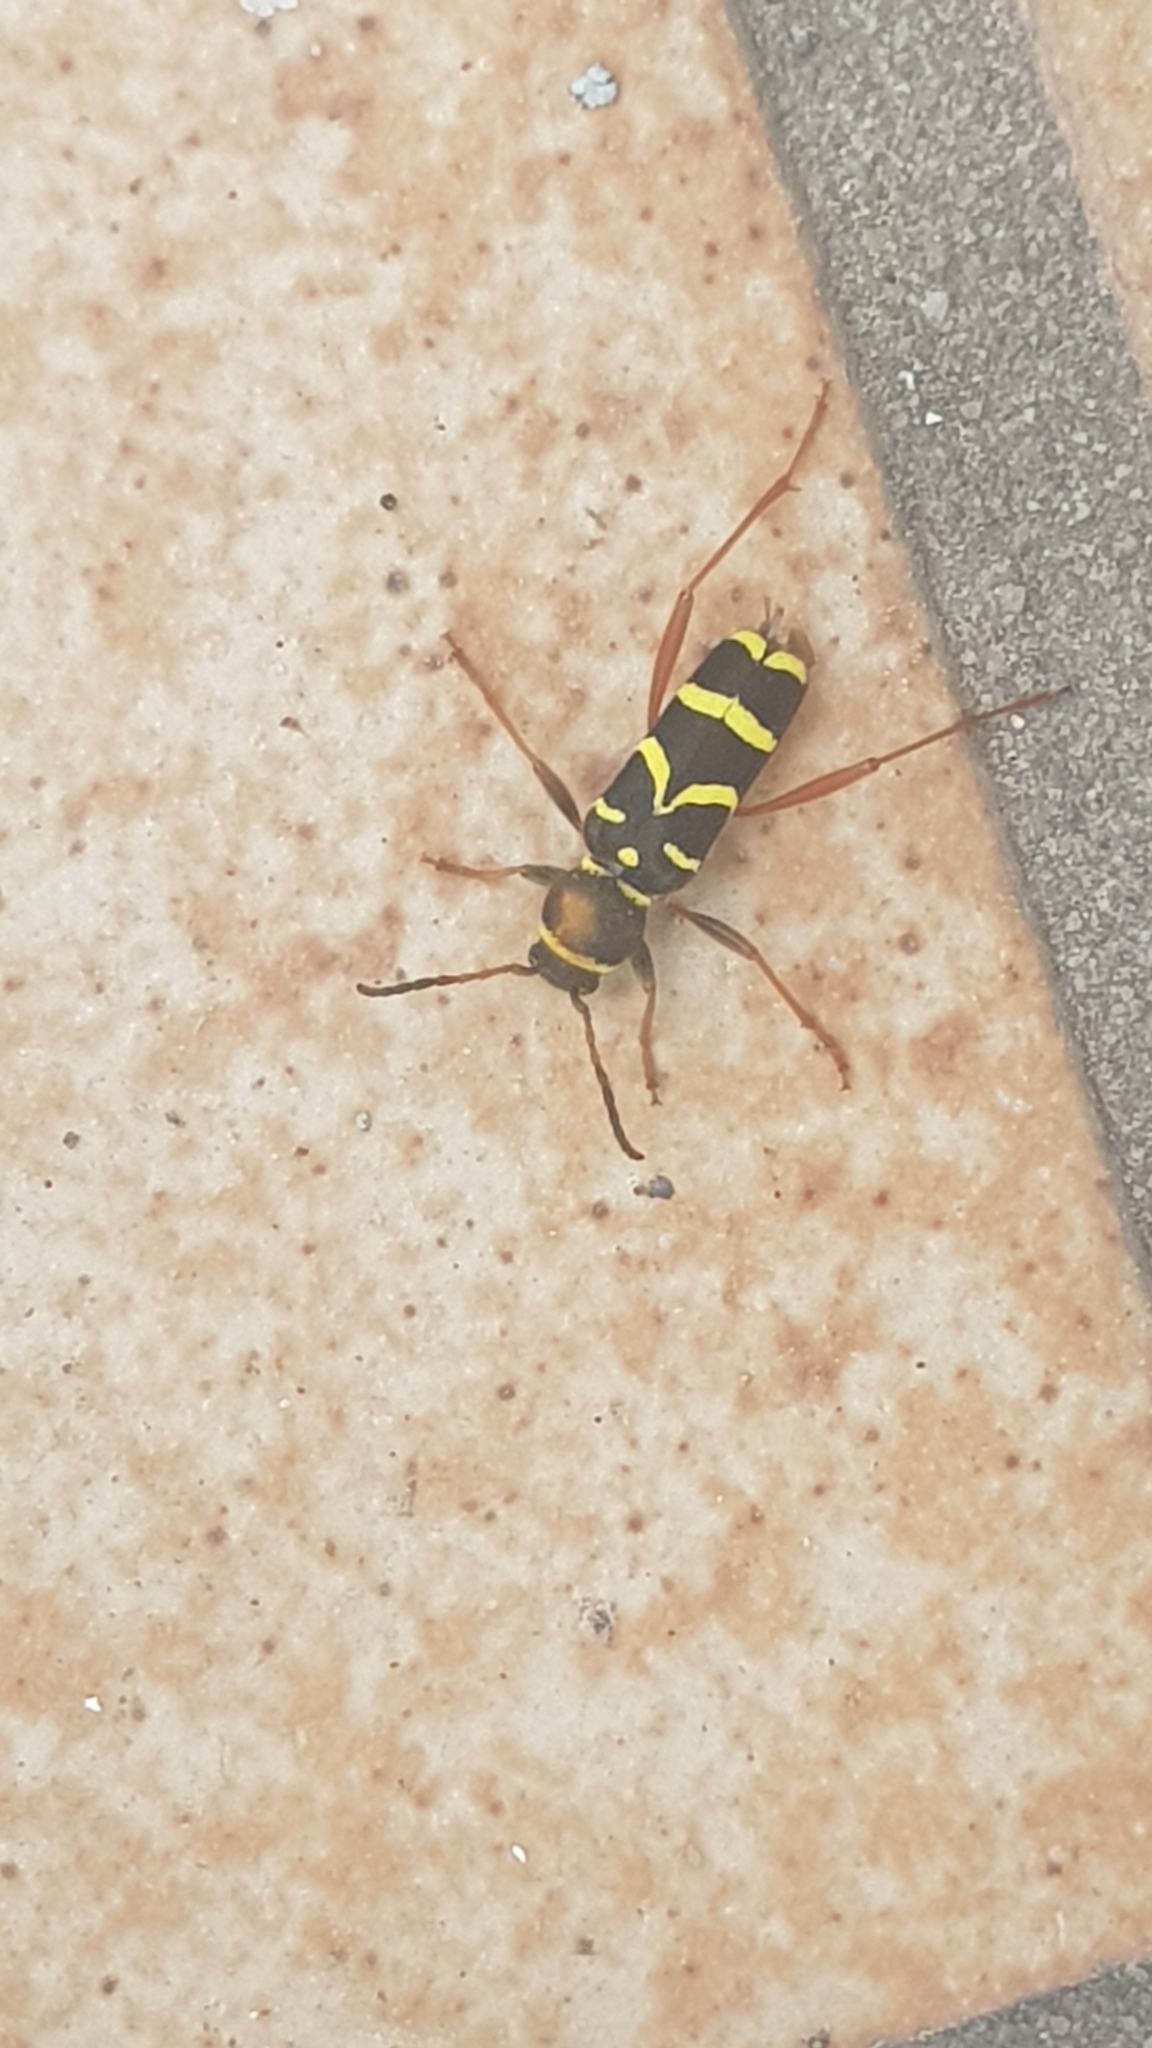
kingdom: Animalia
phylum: Arthropoda
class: Insecta
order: Coleoptera
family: Cerambycidae
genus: Clytus
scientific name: Clytus arietis
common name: Wasp beetle
